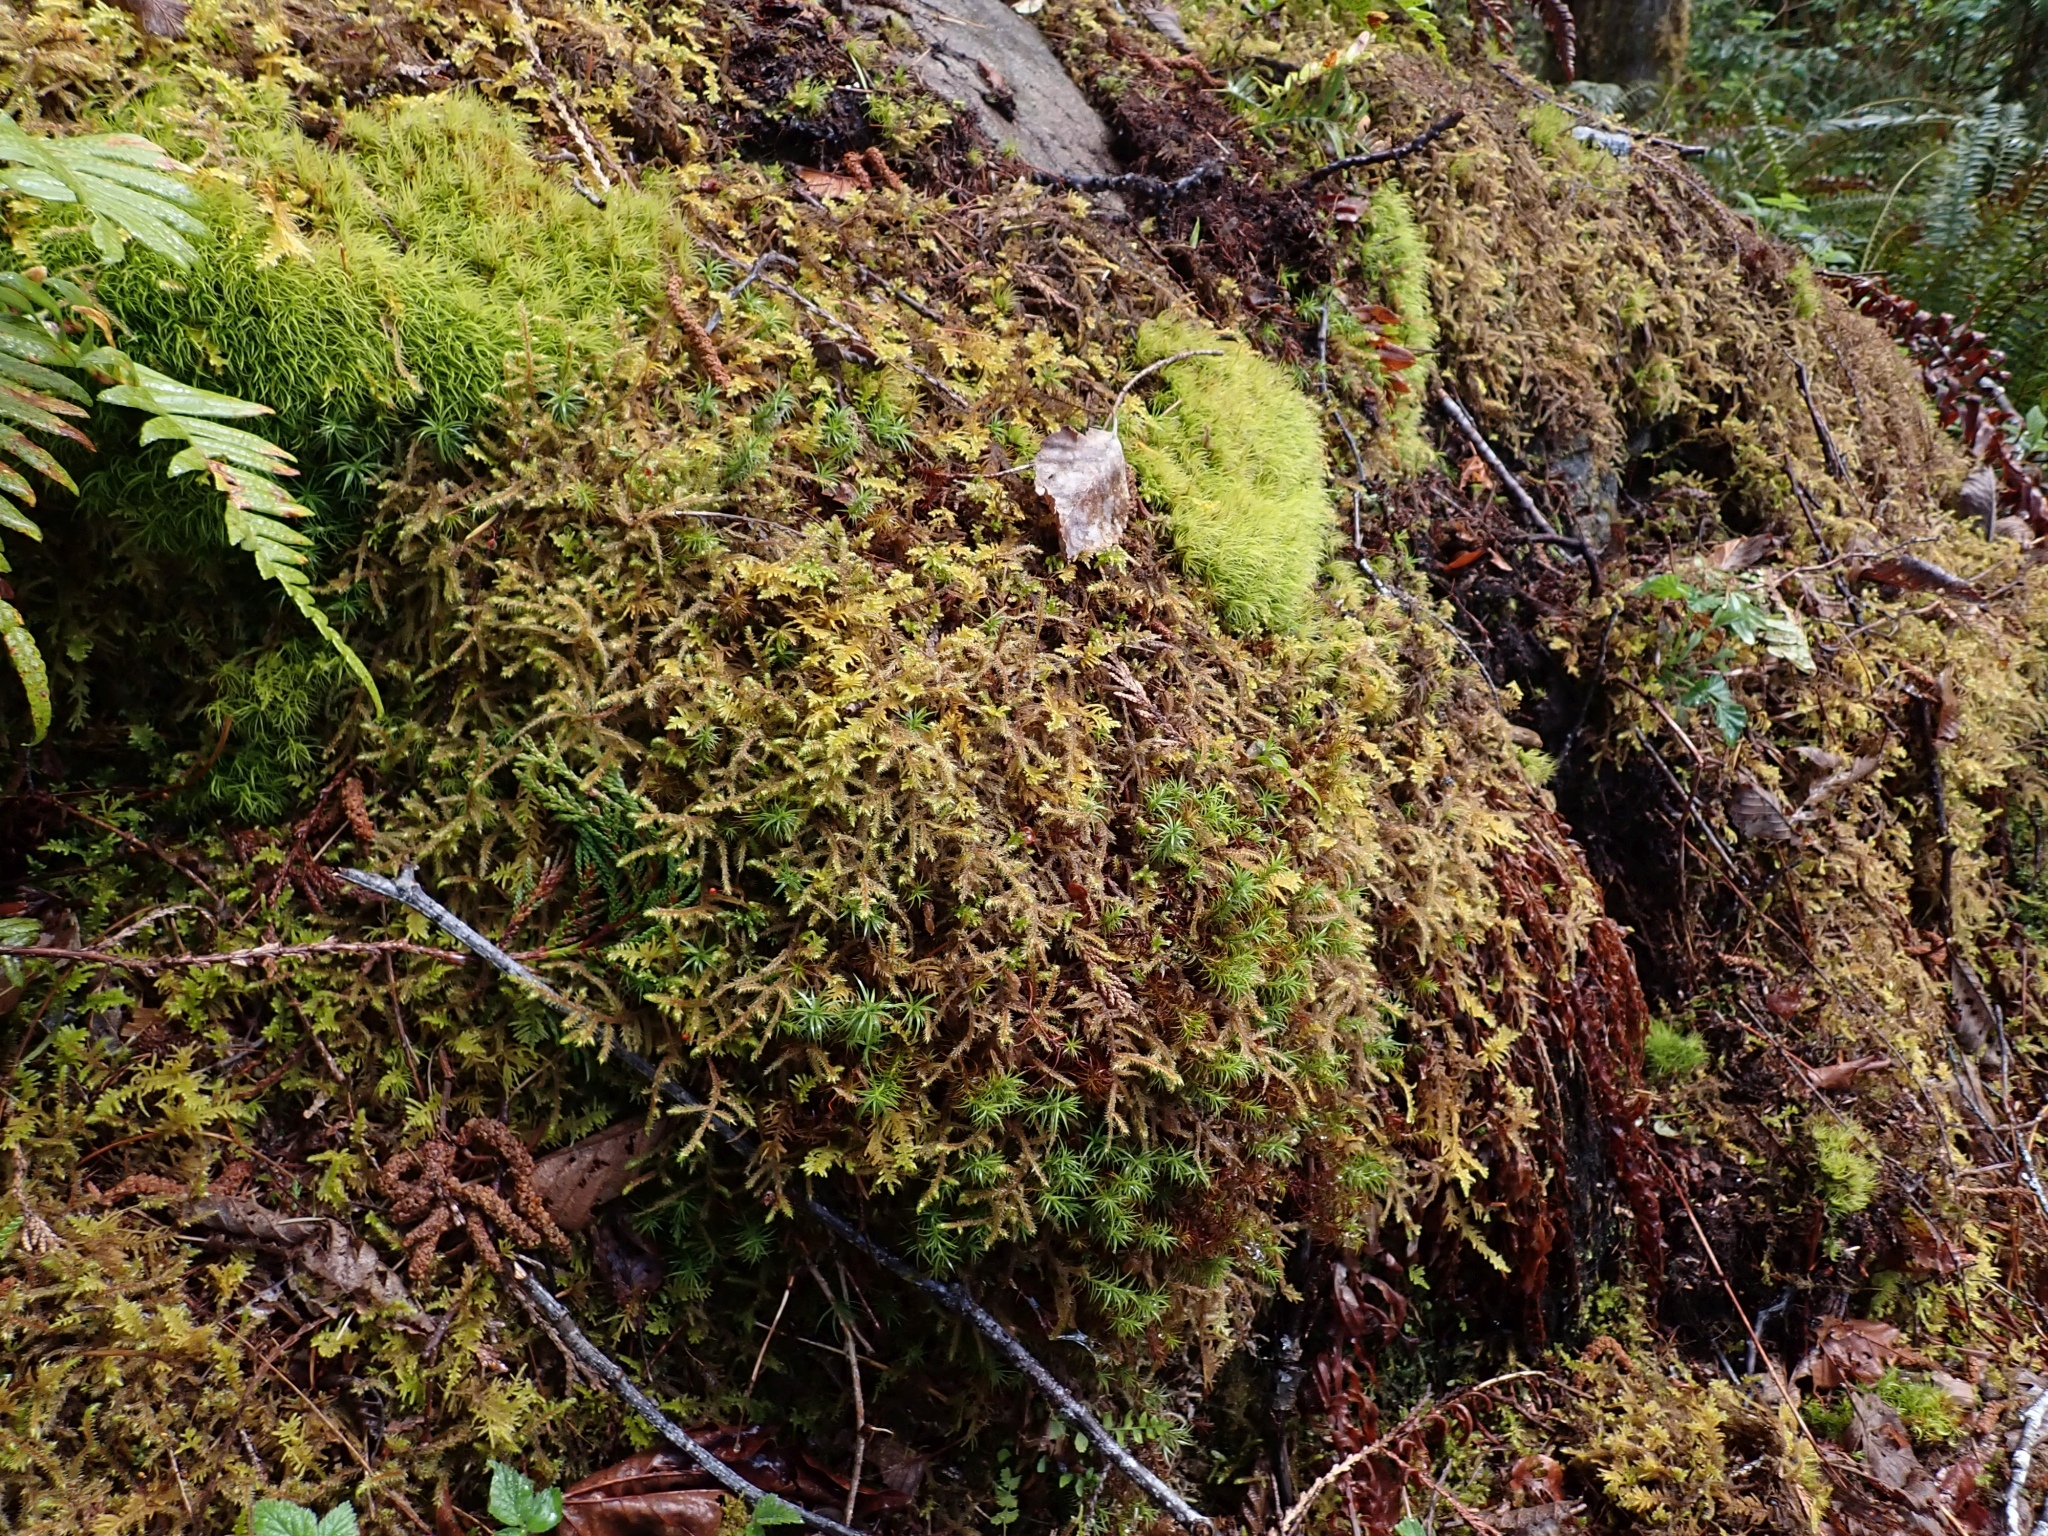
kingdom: Plantae
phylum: Tracheophyta
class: Polypodiopsida
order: Polypodiales
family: Dryopteridaceae
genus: Polystichum
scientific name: Polystichum munitum
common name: Western sword-fern
